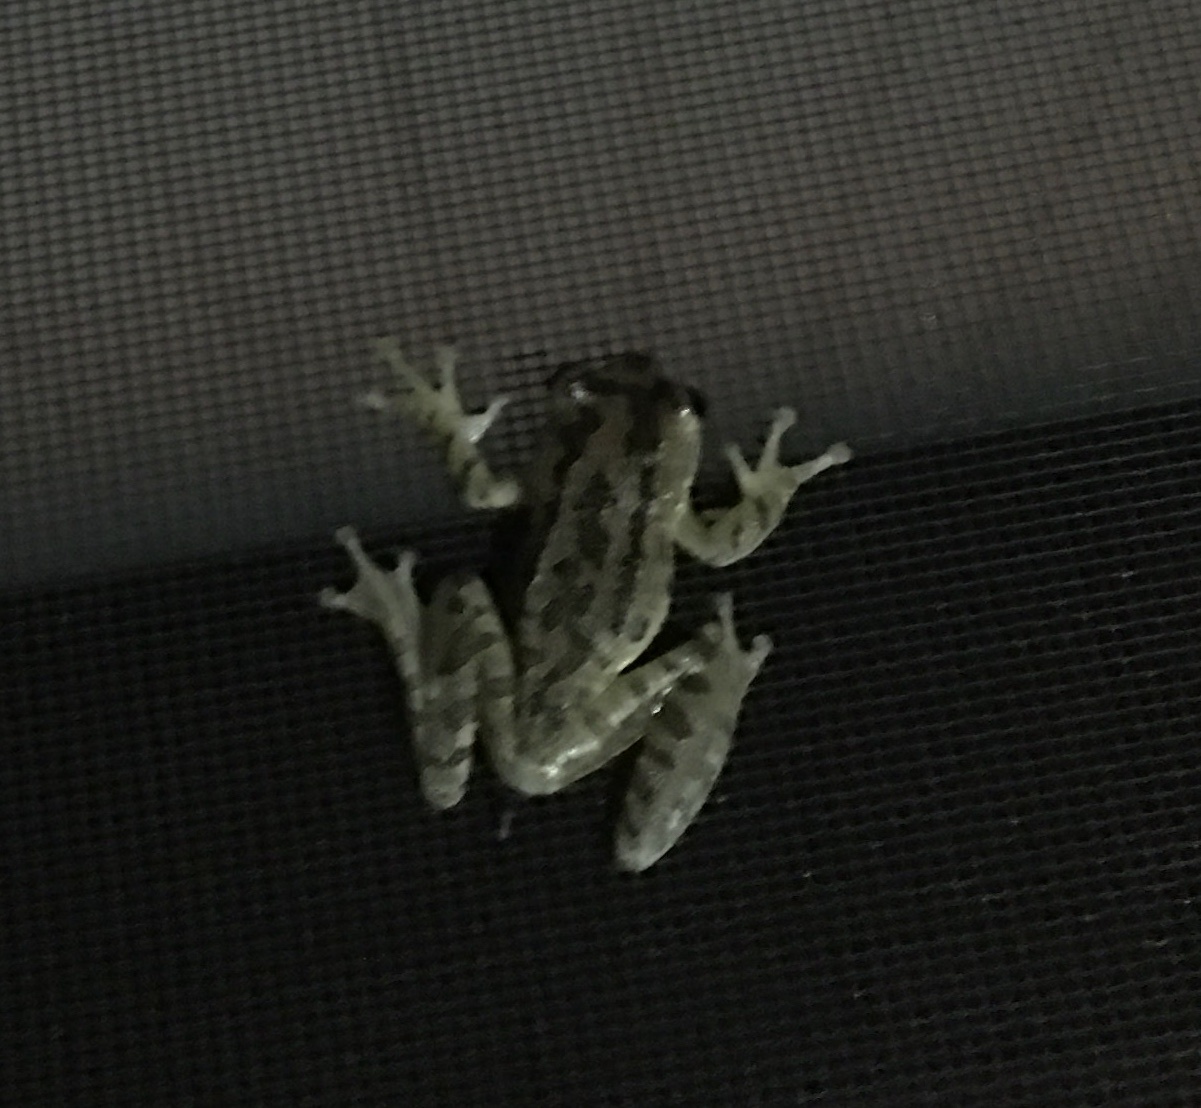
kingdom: Animalia
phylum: Chordata
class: Amphibia
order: Anura
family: Hylidae
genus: Osteopilus
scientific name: Osteopilus septentrionalis
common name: Cuban treefrog
